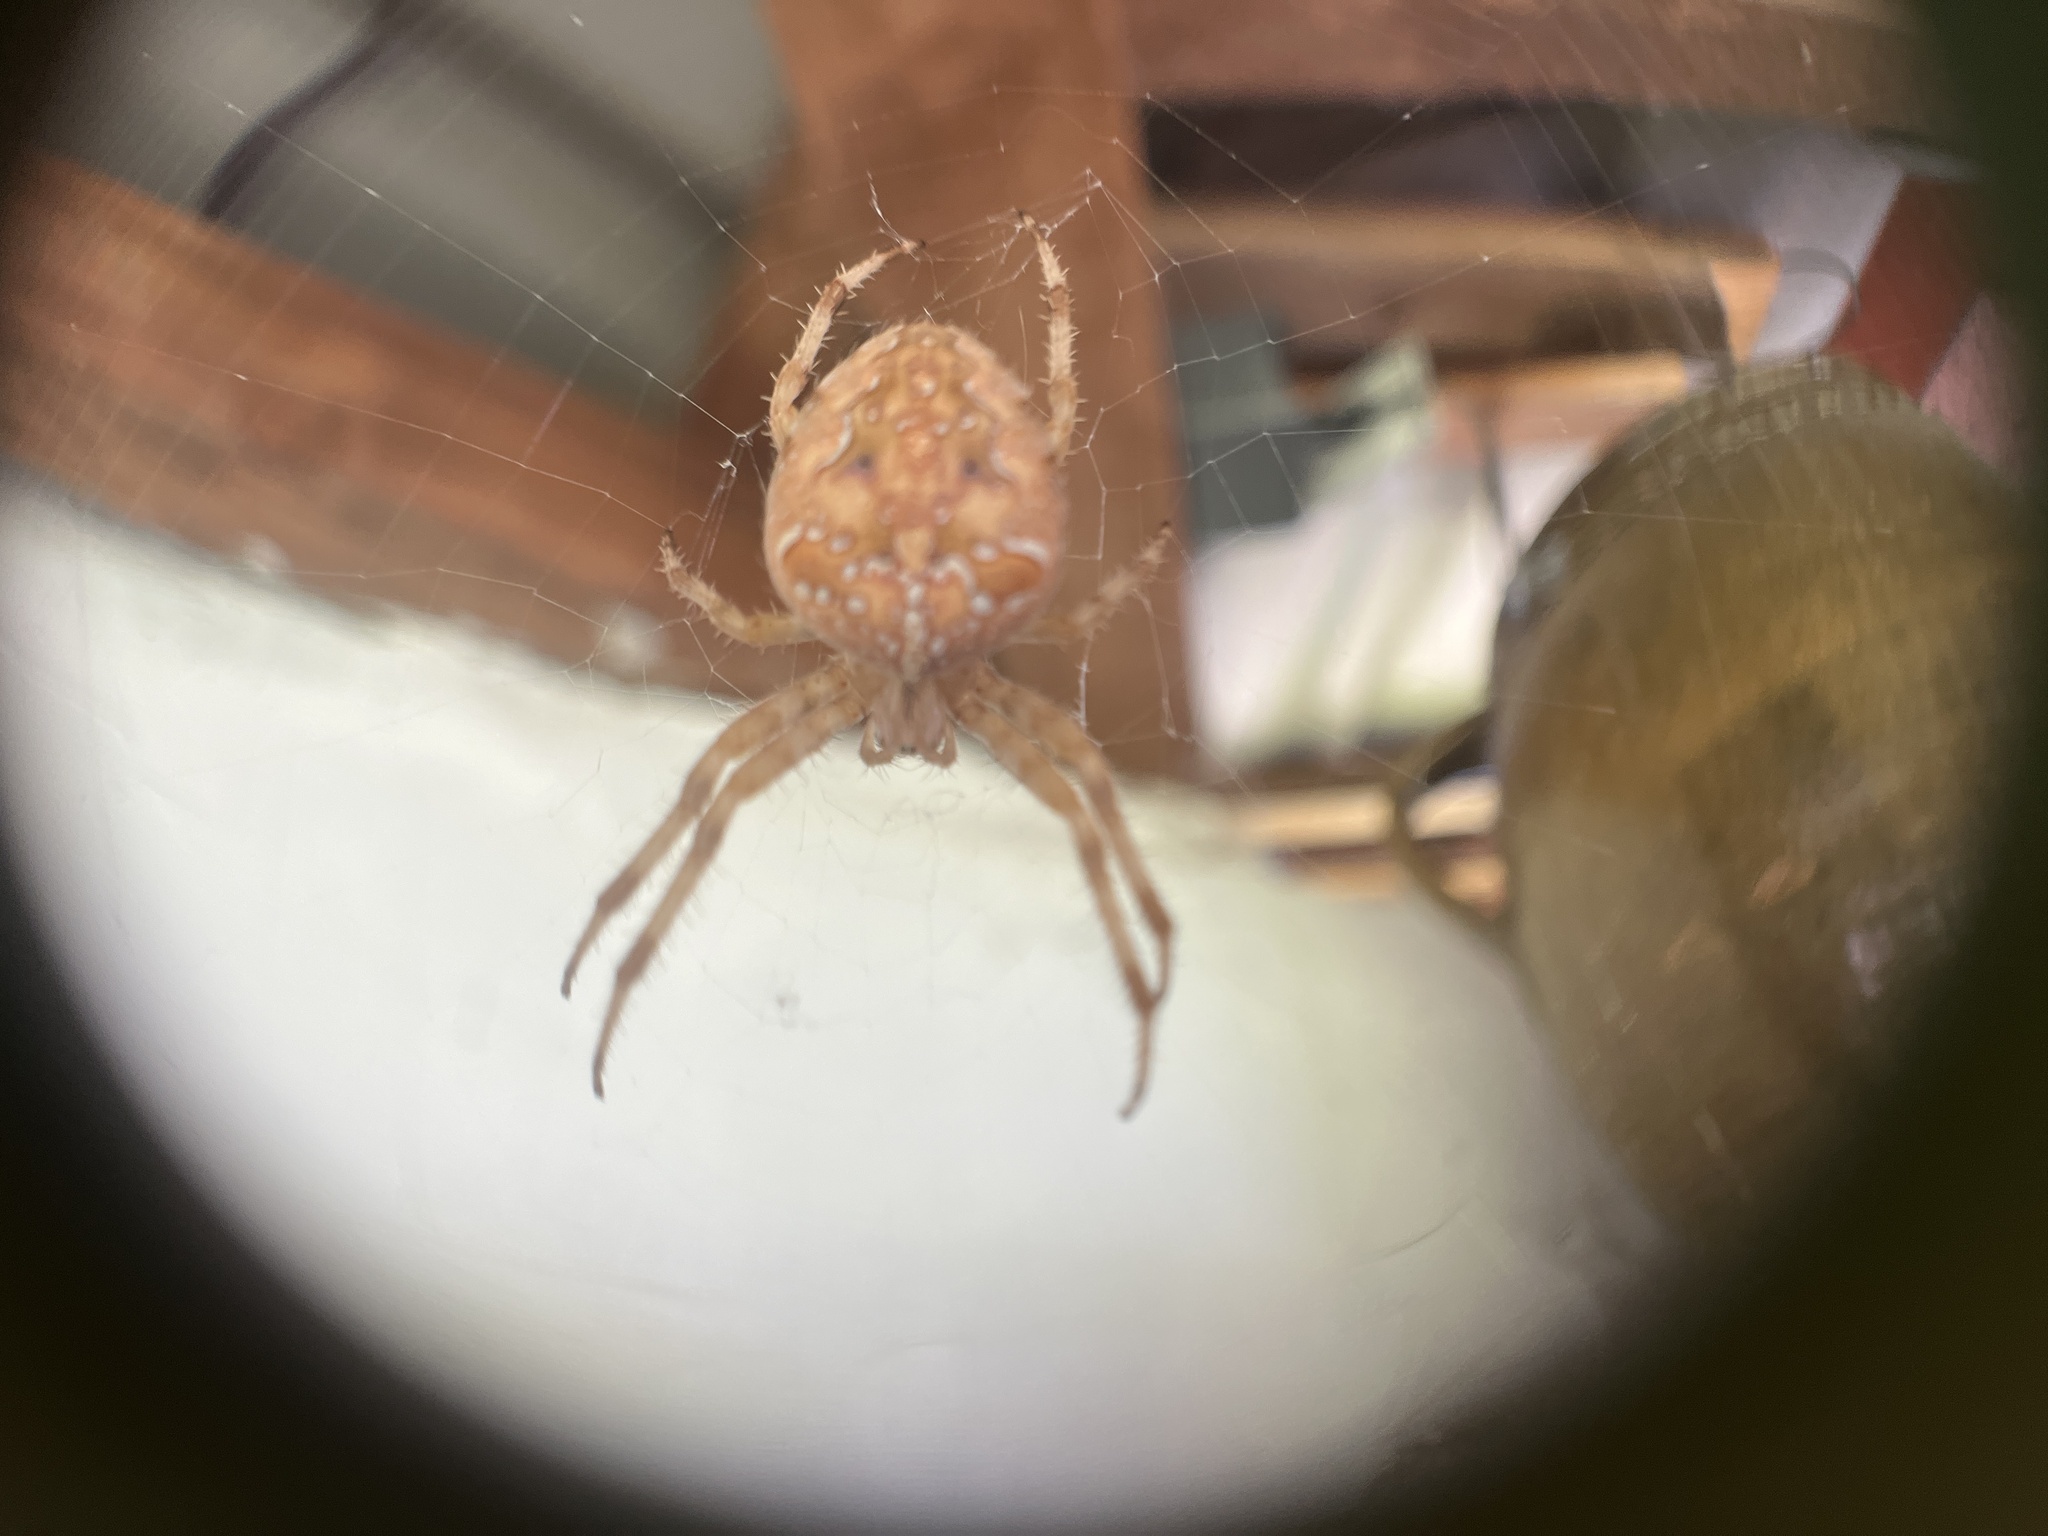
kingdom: Animalia
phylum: Arthropoda
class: Arachnida
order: Araneae
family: Araneidae
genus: Araneus
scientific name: Araneus diadematus
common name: Cross orbweaver
